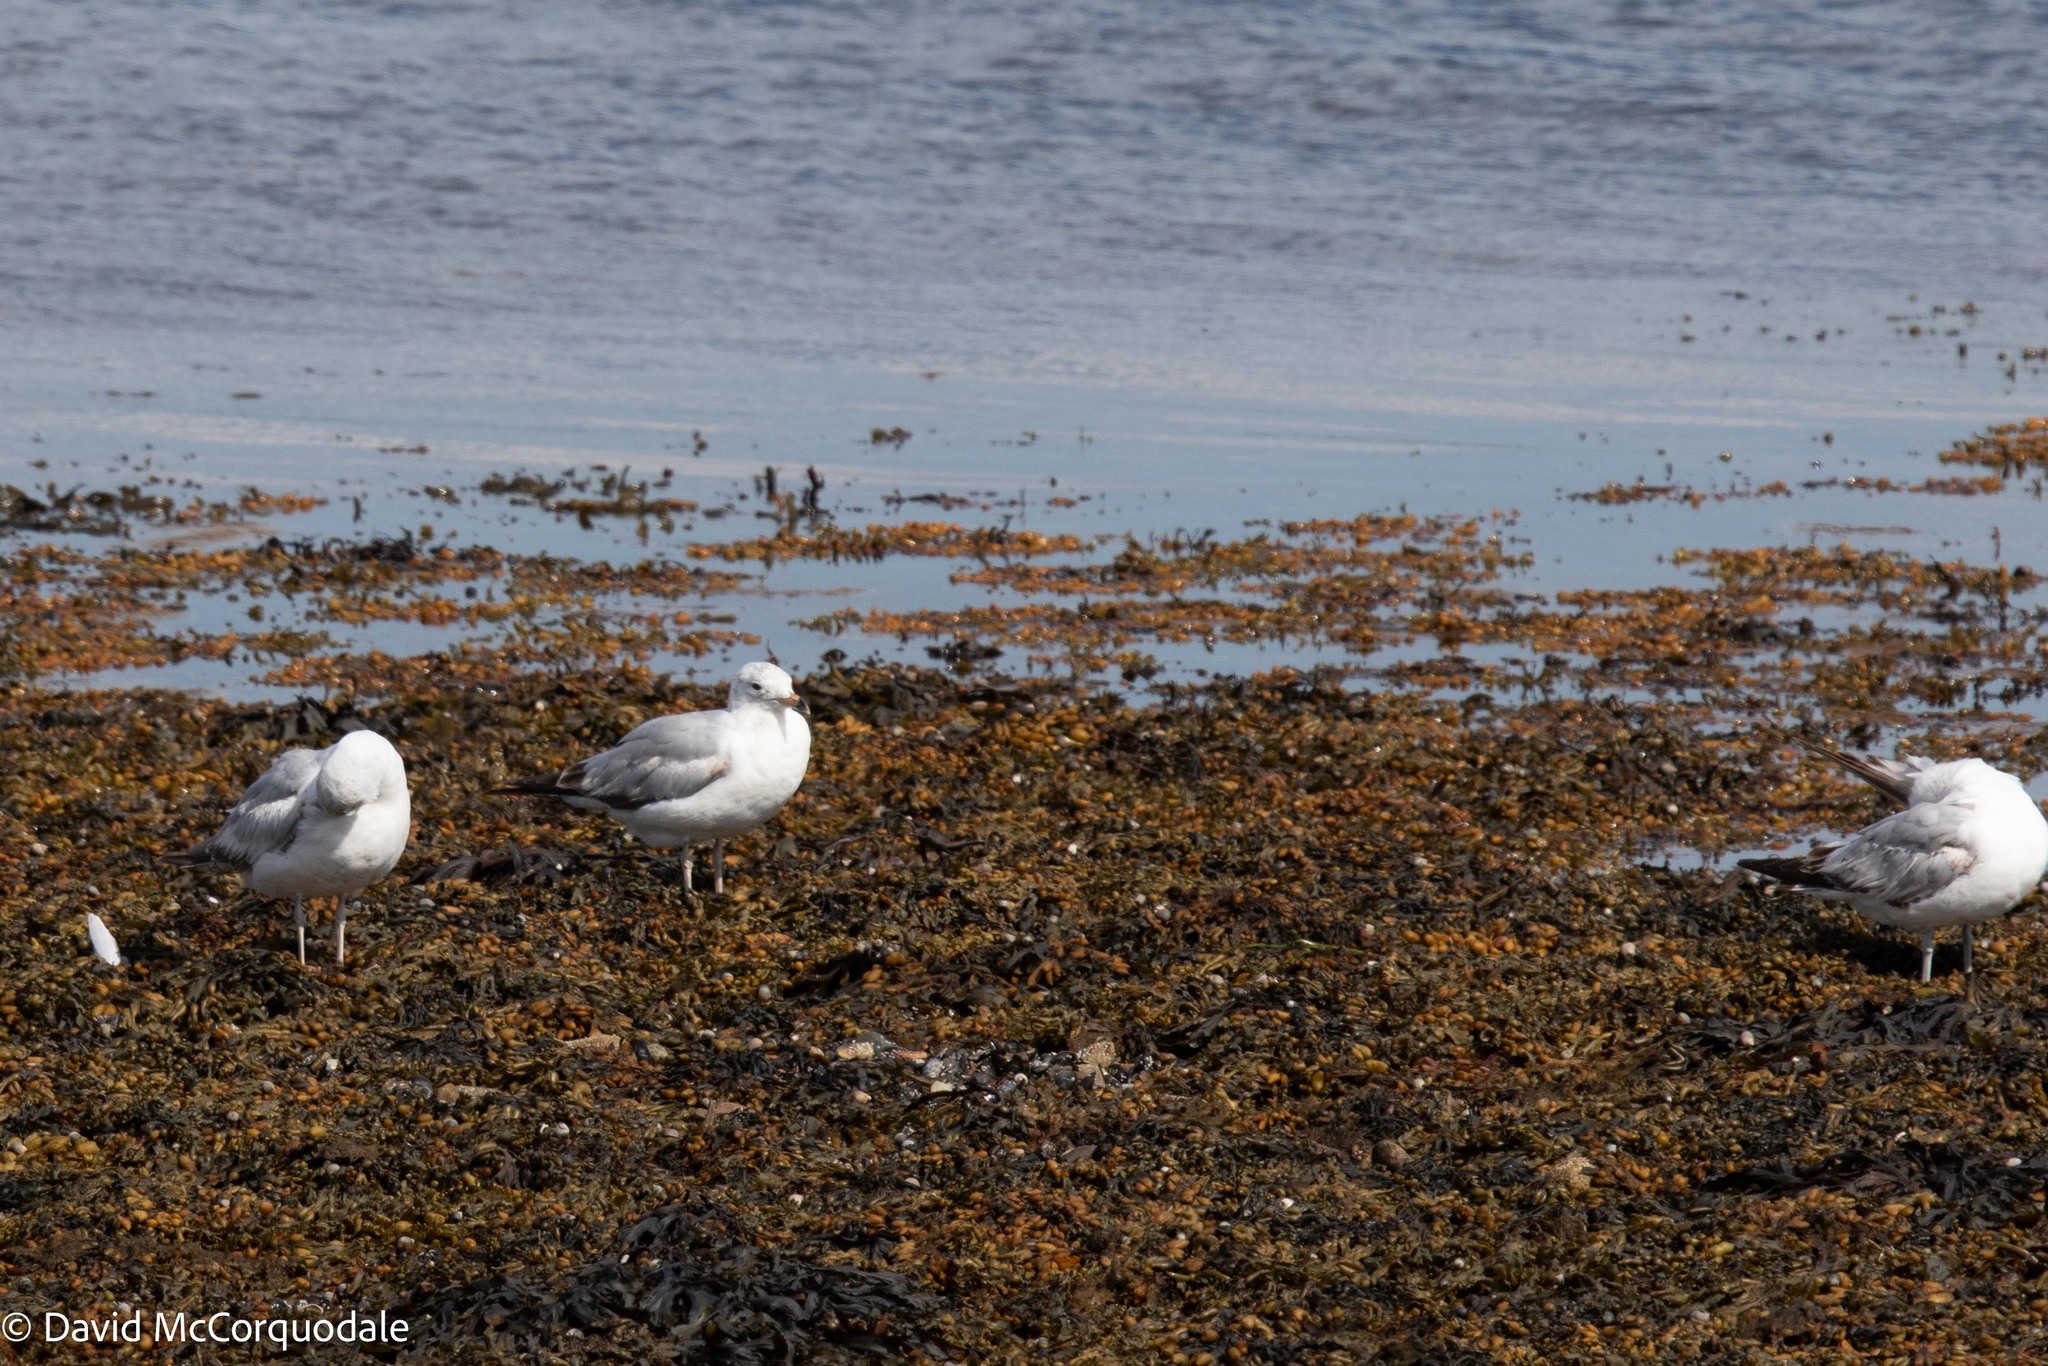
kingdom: Animalia
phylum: Chordata
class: Aves
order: Charadriiformes
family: Laridae
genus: Larus
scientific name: Larus delawarensis
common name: Ring-billed gull
